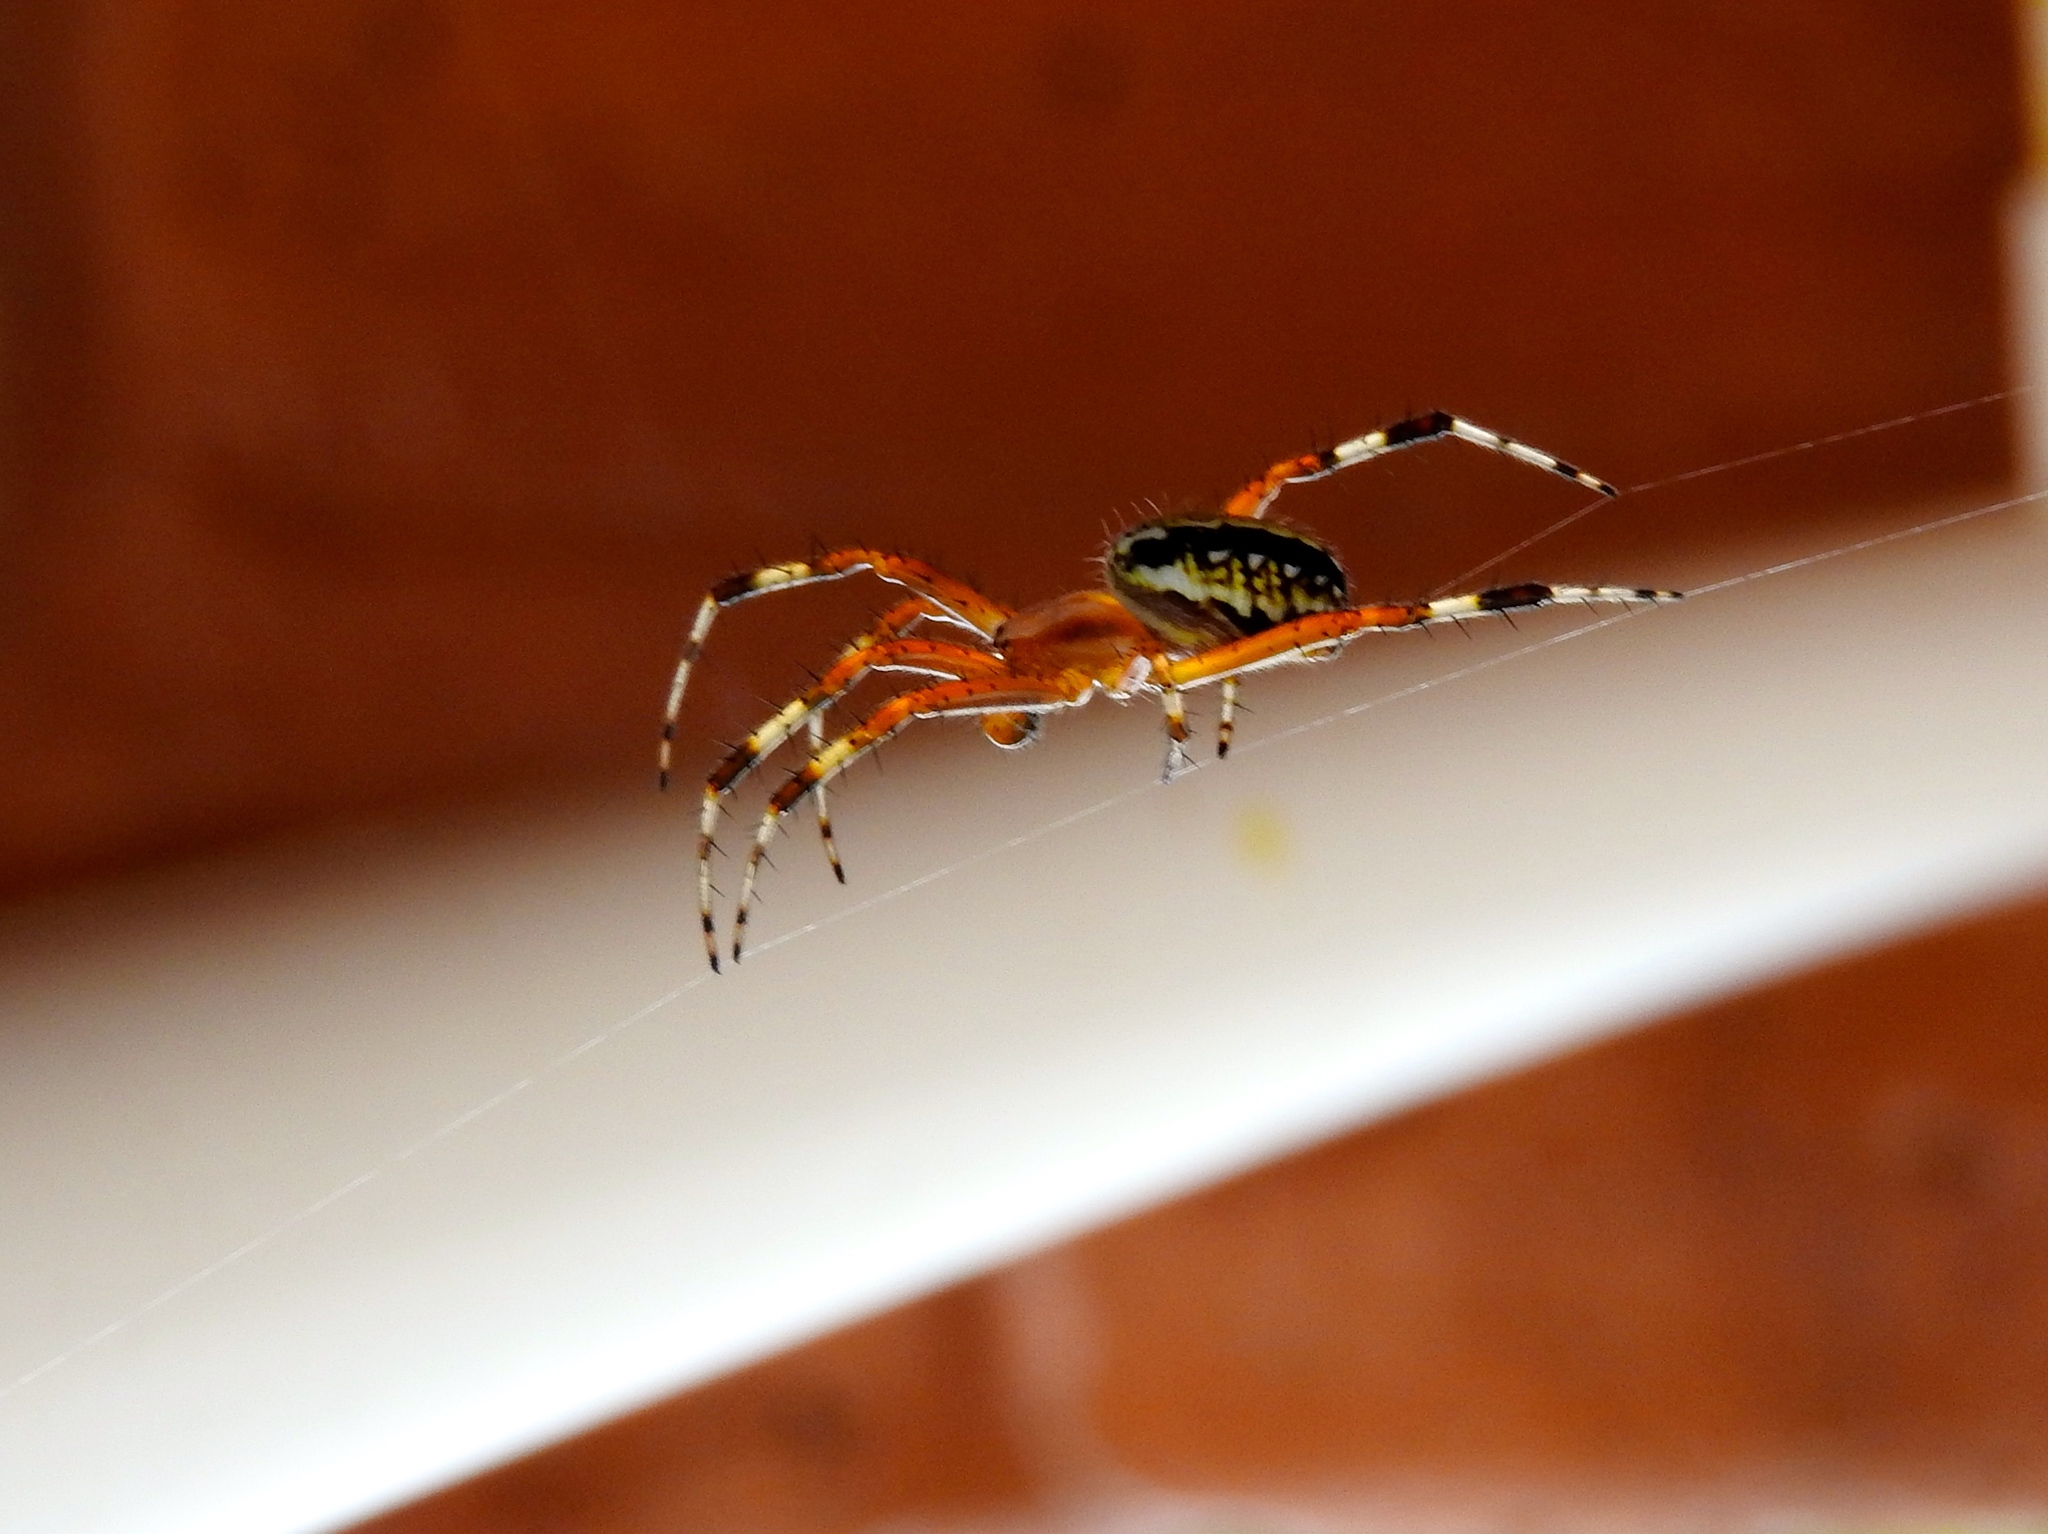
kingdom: Animalia
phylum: Arthropoda
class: Arachnida
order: Araneae
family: Araneidae
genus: Neoscona
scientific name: Neoscona oaxacensis
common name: Orb weavers
